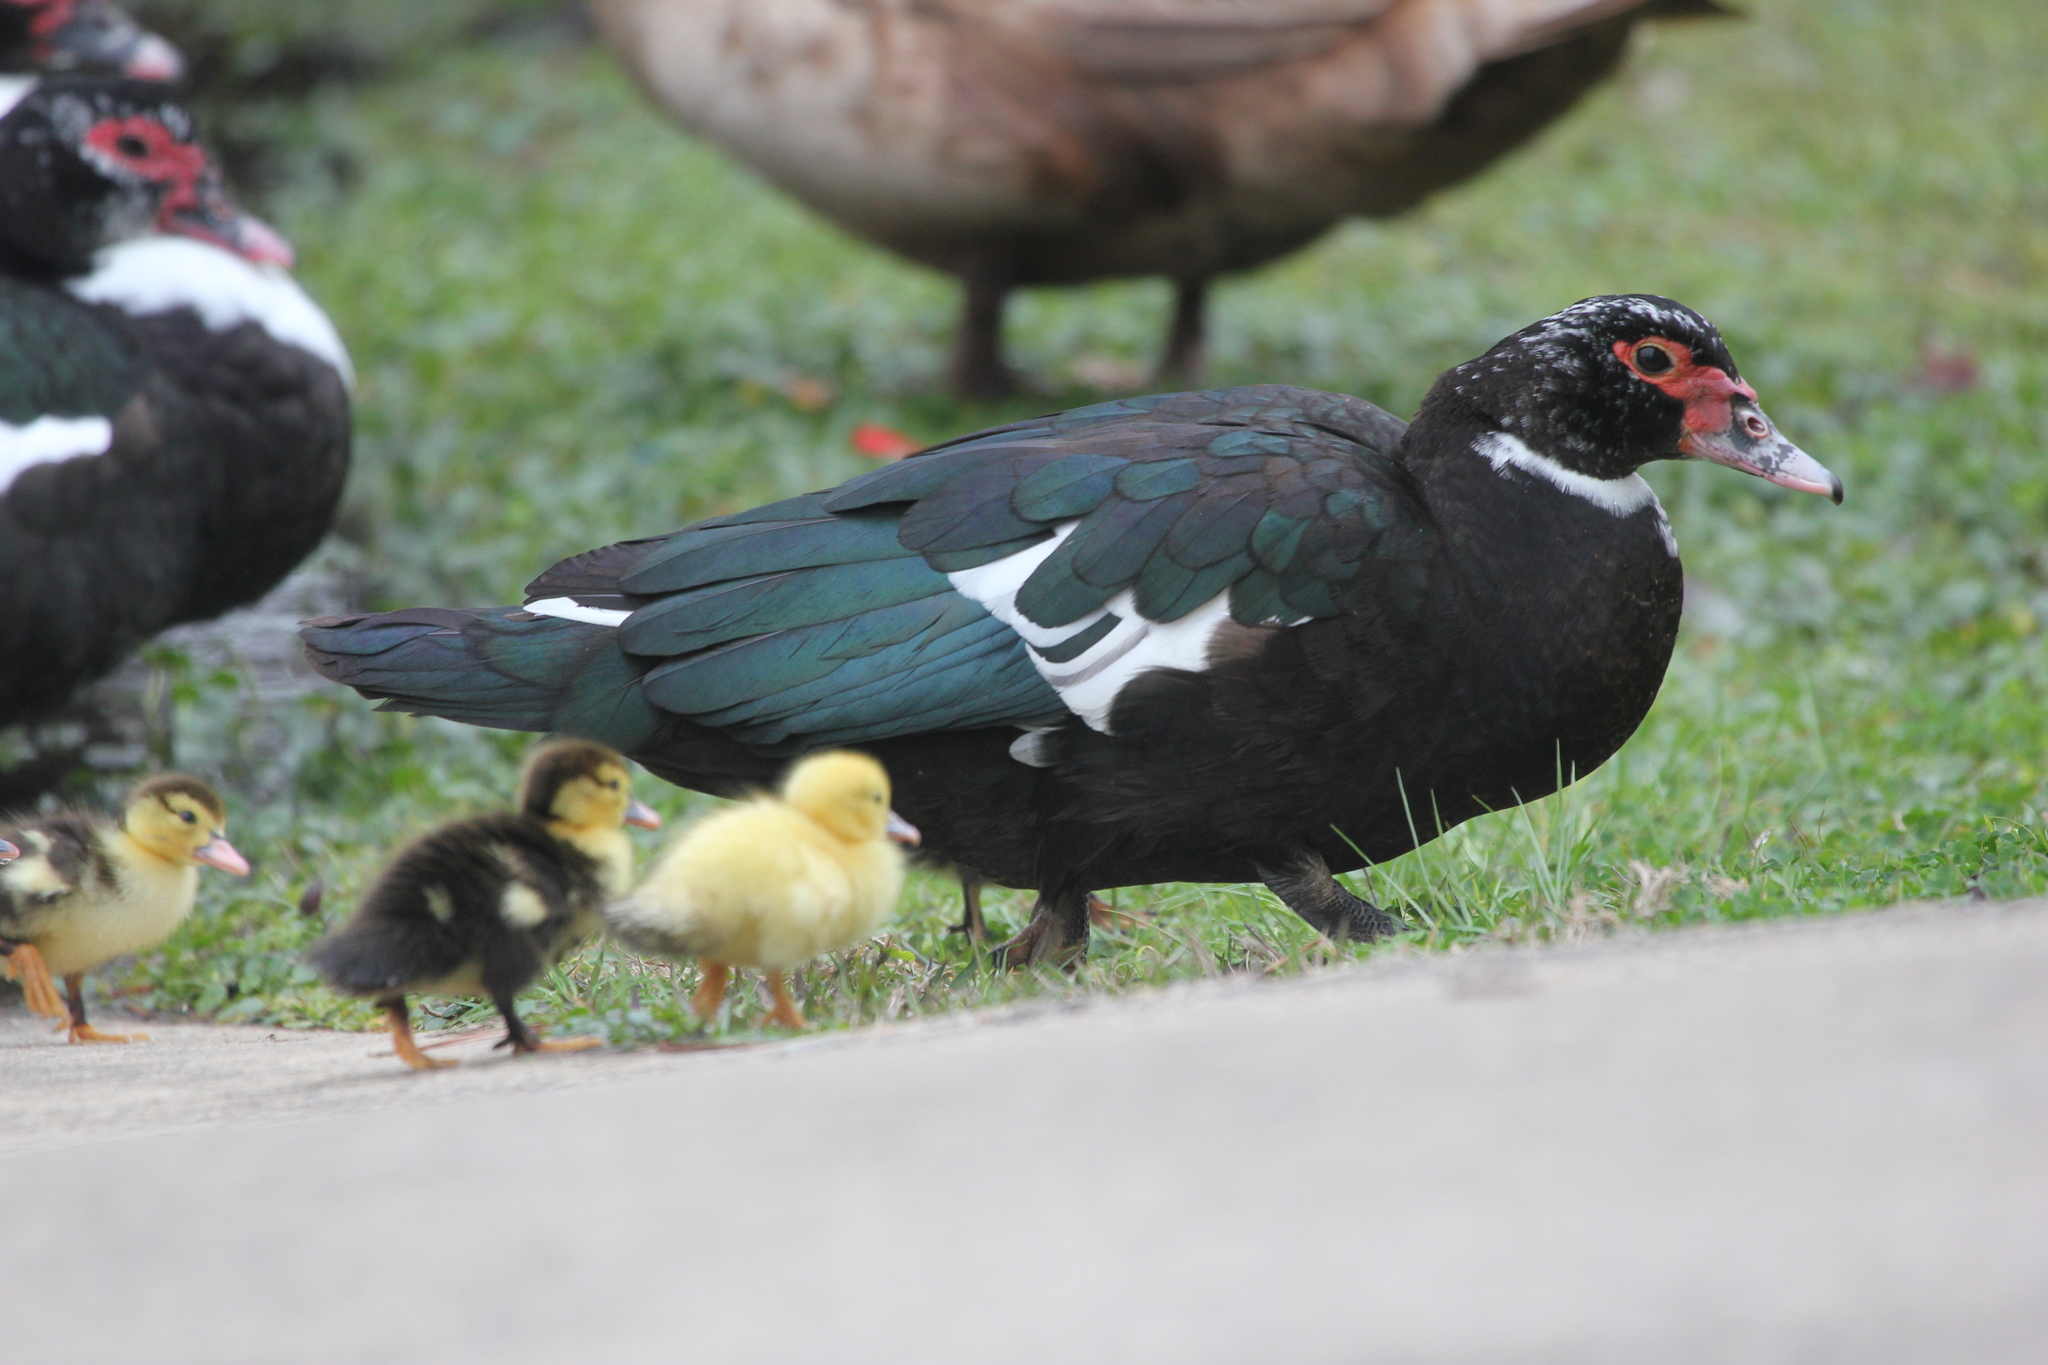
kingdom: Animalia
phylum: Chordata
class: Aves
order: Anseriformes
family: Anatidae
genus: Cairina
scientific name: Cairina moschata
